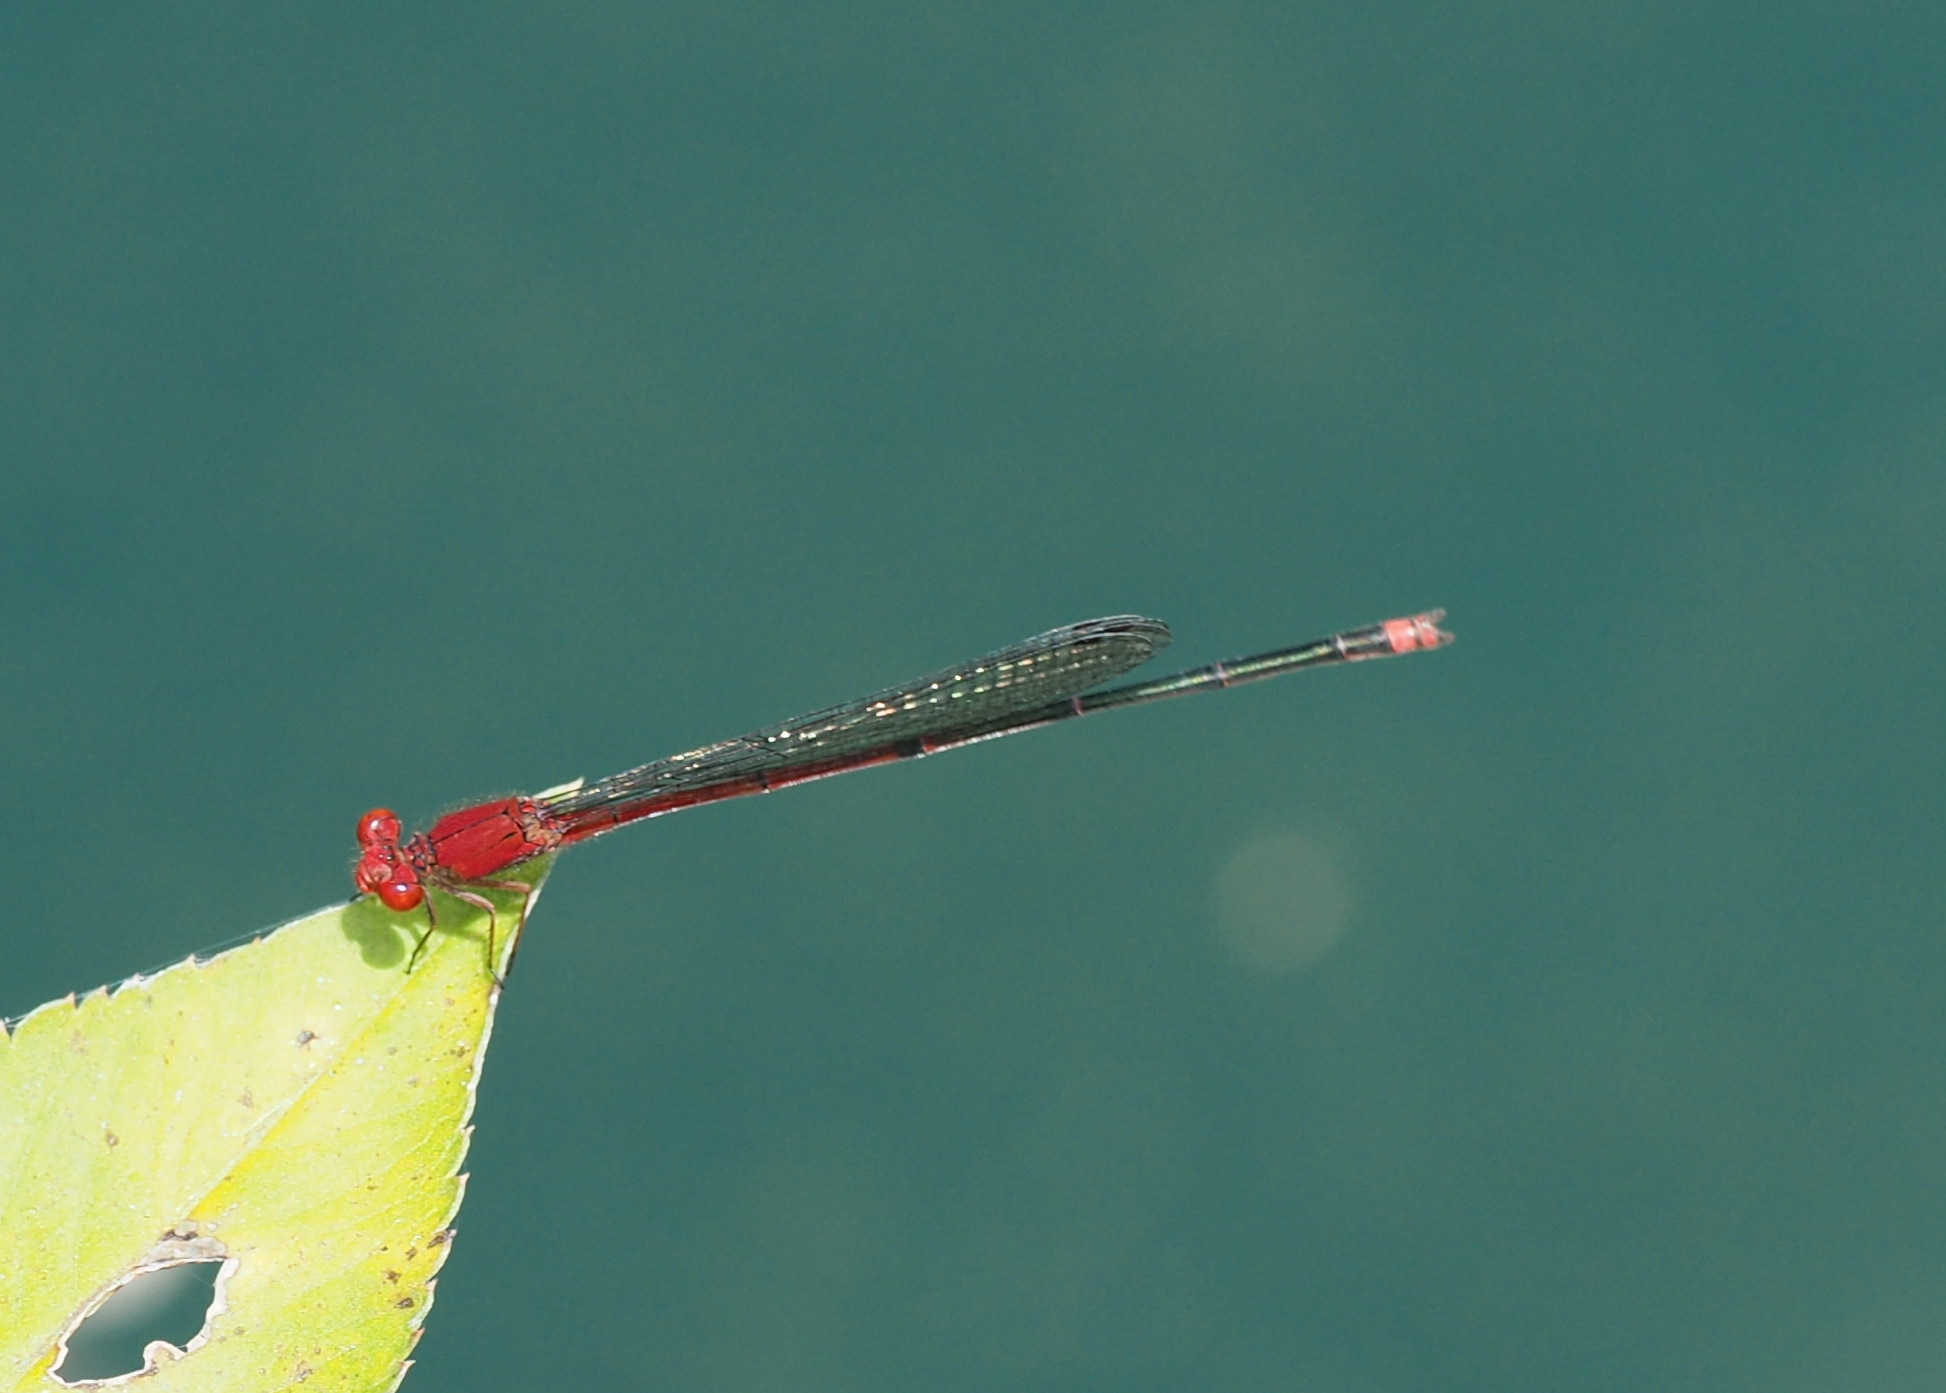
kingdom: Animalia
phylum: Arthropoda
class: Insecta
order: Odonata
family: Coenagrionidae
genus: Pseudagrion
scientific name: Pseudagrion pilidorsum
